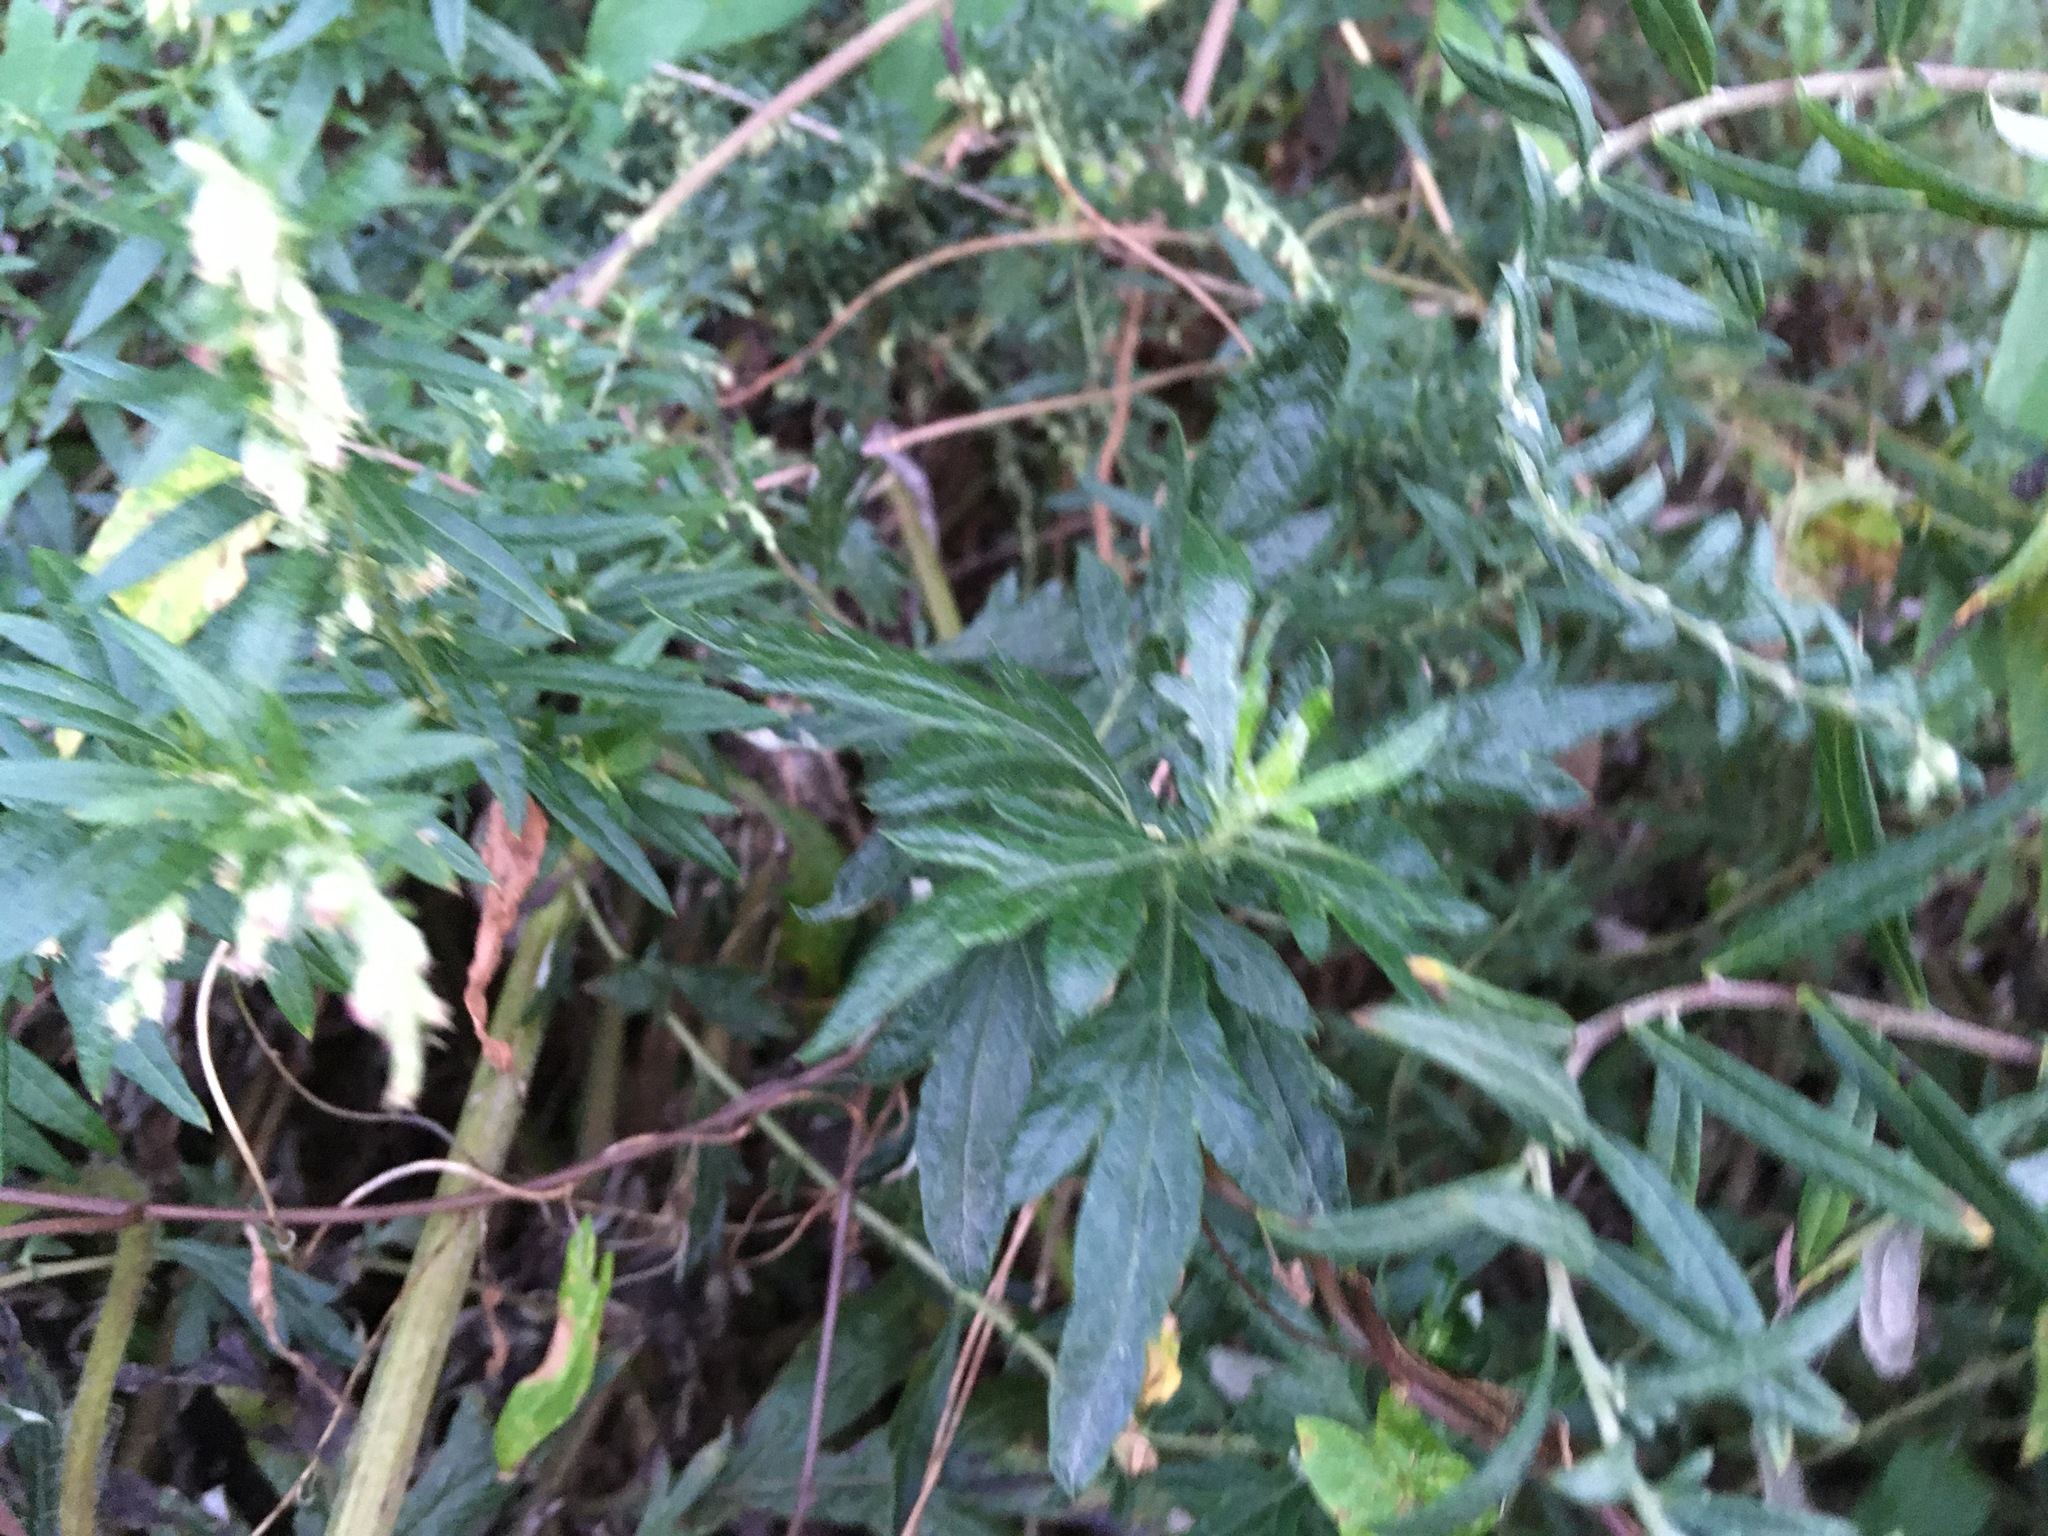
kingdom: Plantae
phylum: Tracheophyta
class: Magnoliopsida
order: Asterales
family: Asteraceae
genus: Artemisia
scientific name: Artemisia vulgaris
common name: Mugwort
